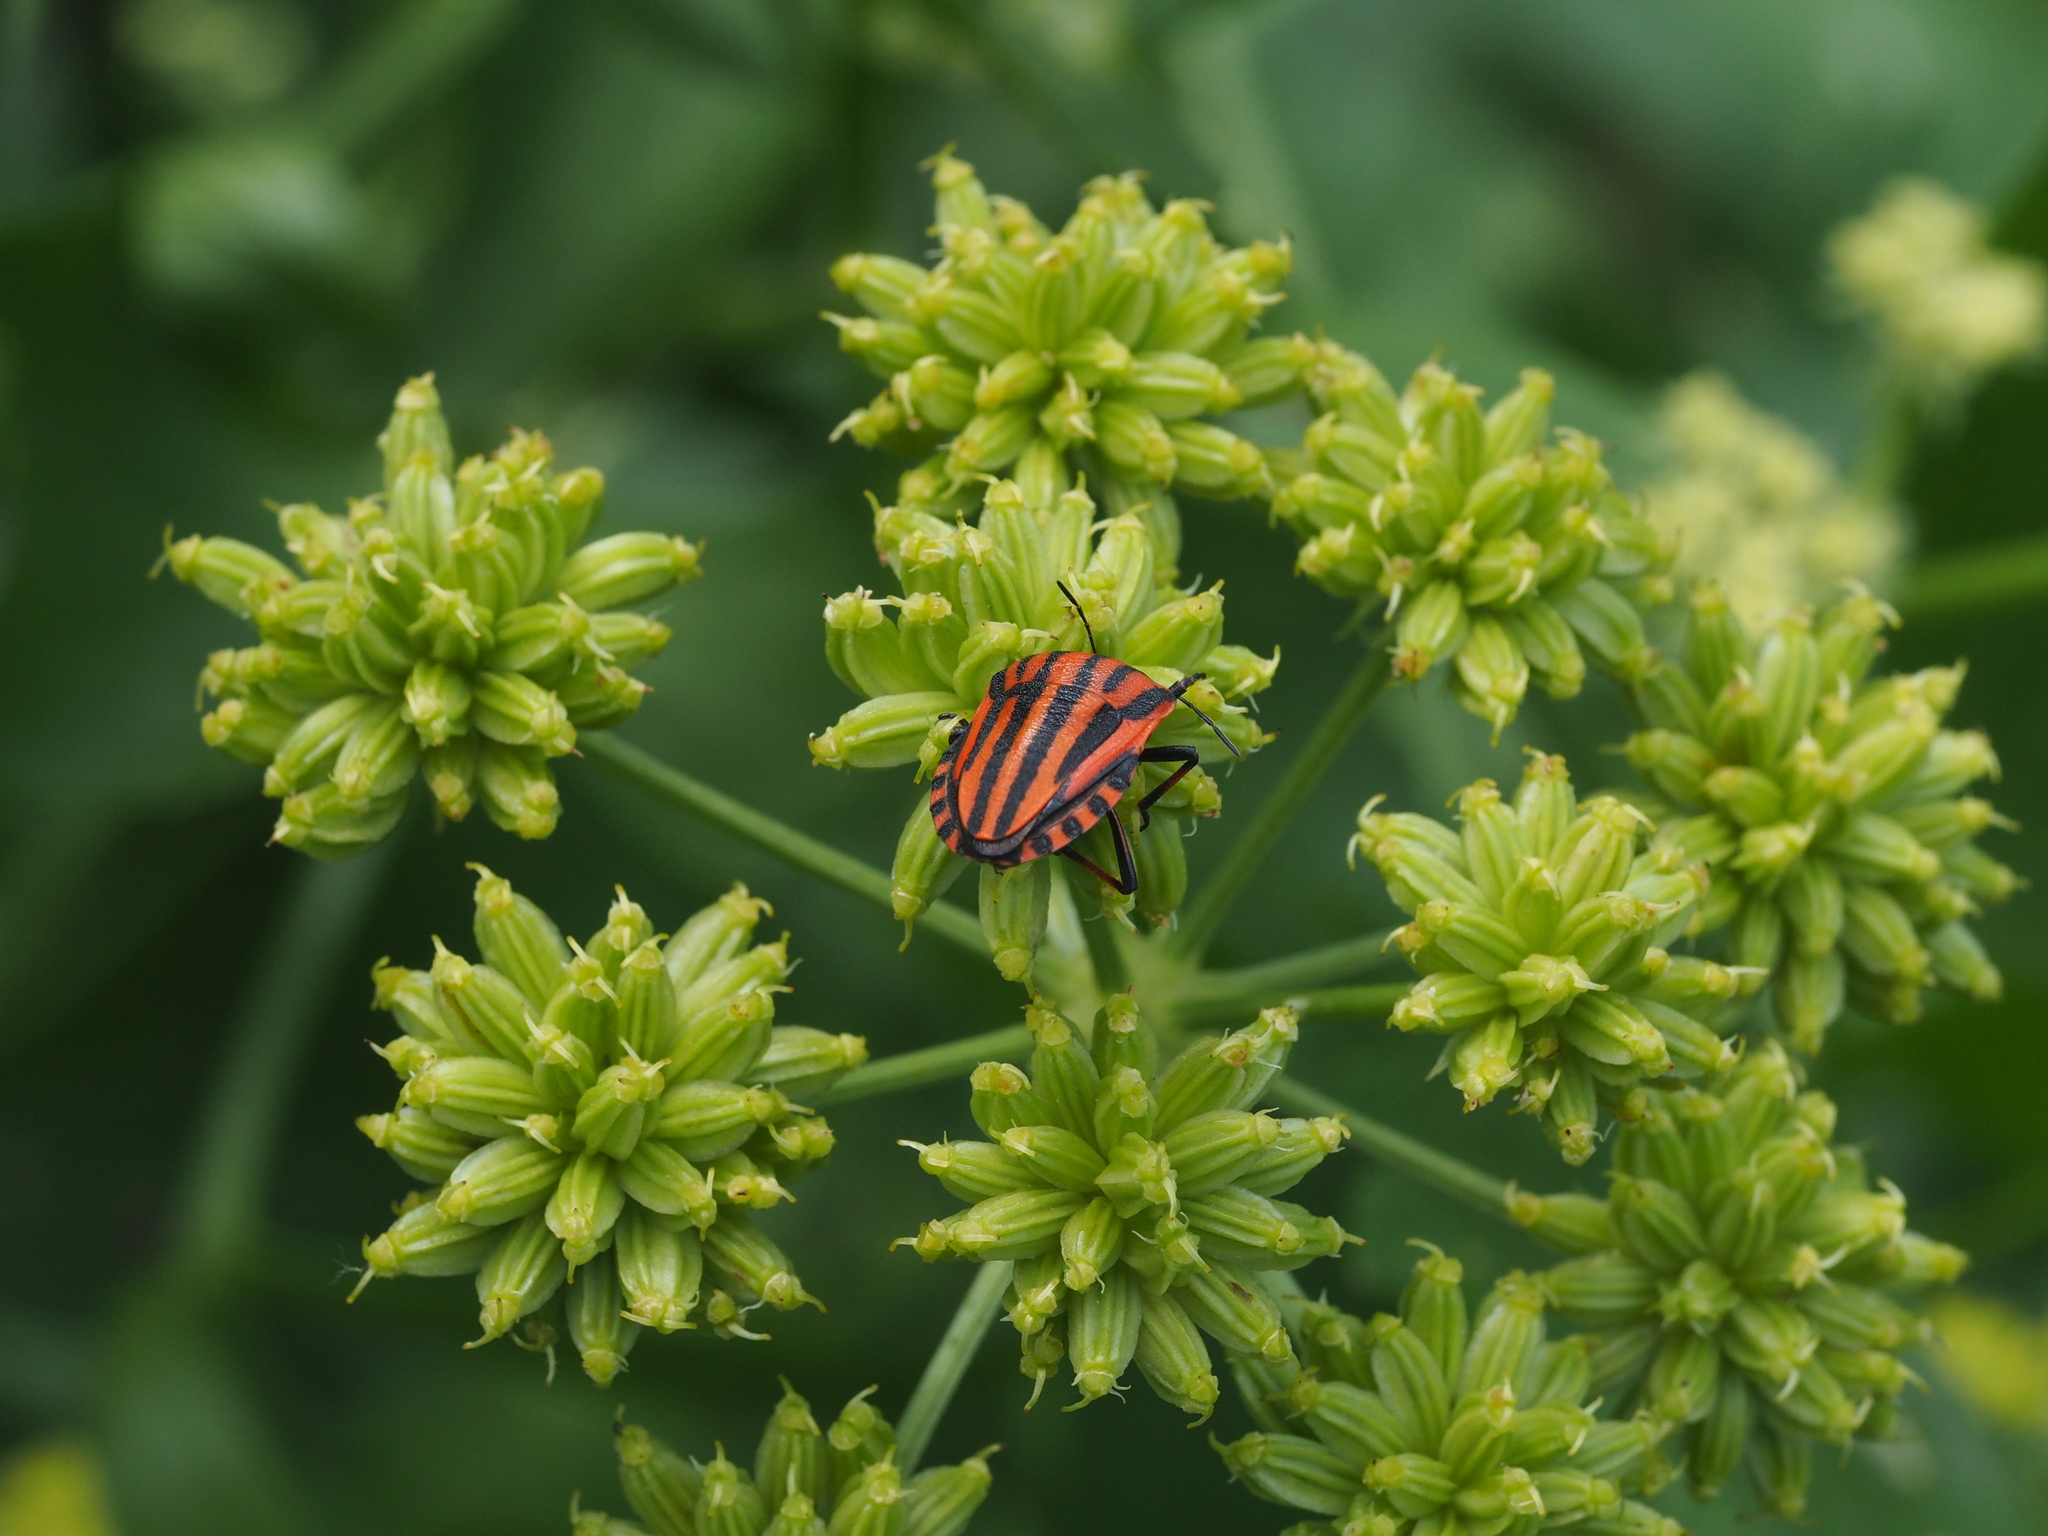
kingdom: Animalia
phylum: Arthropoda
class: Insecta
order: Hemiptera
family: Pentatomidae
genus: Graphosoma
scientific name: Graphosoma italicum
